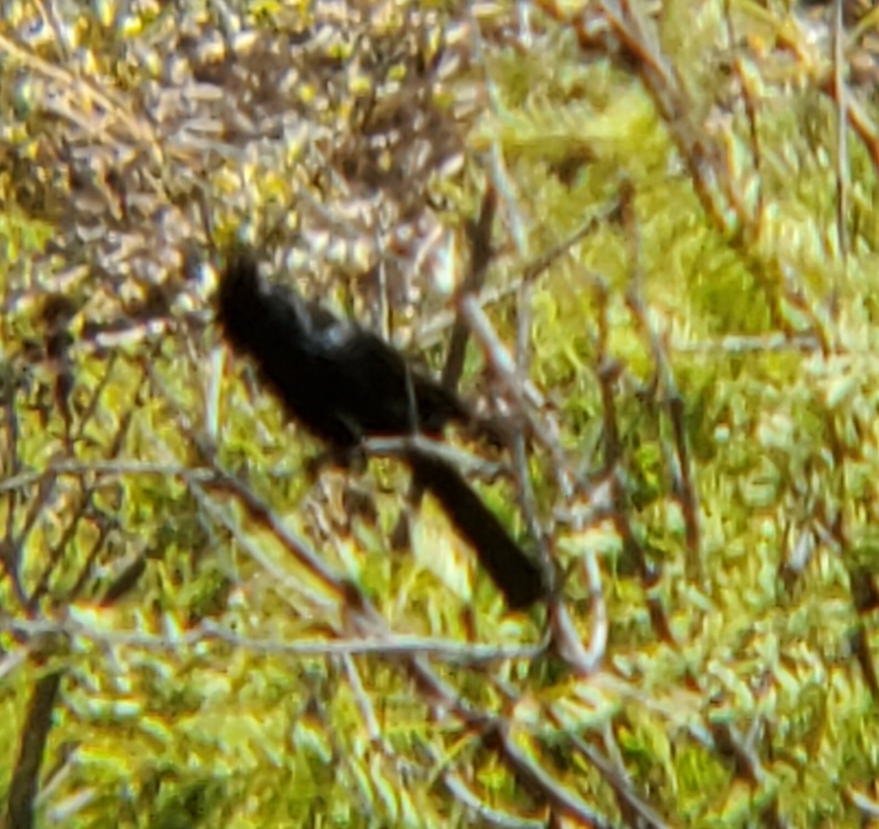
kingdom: Animalia
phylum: Chordata
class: Aves
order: Passeriformes
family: Ptilogonatidae
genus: Phainopepla
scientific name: Phainopepla nitens
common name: Phainopepla
